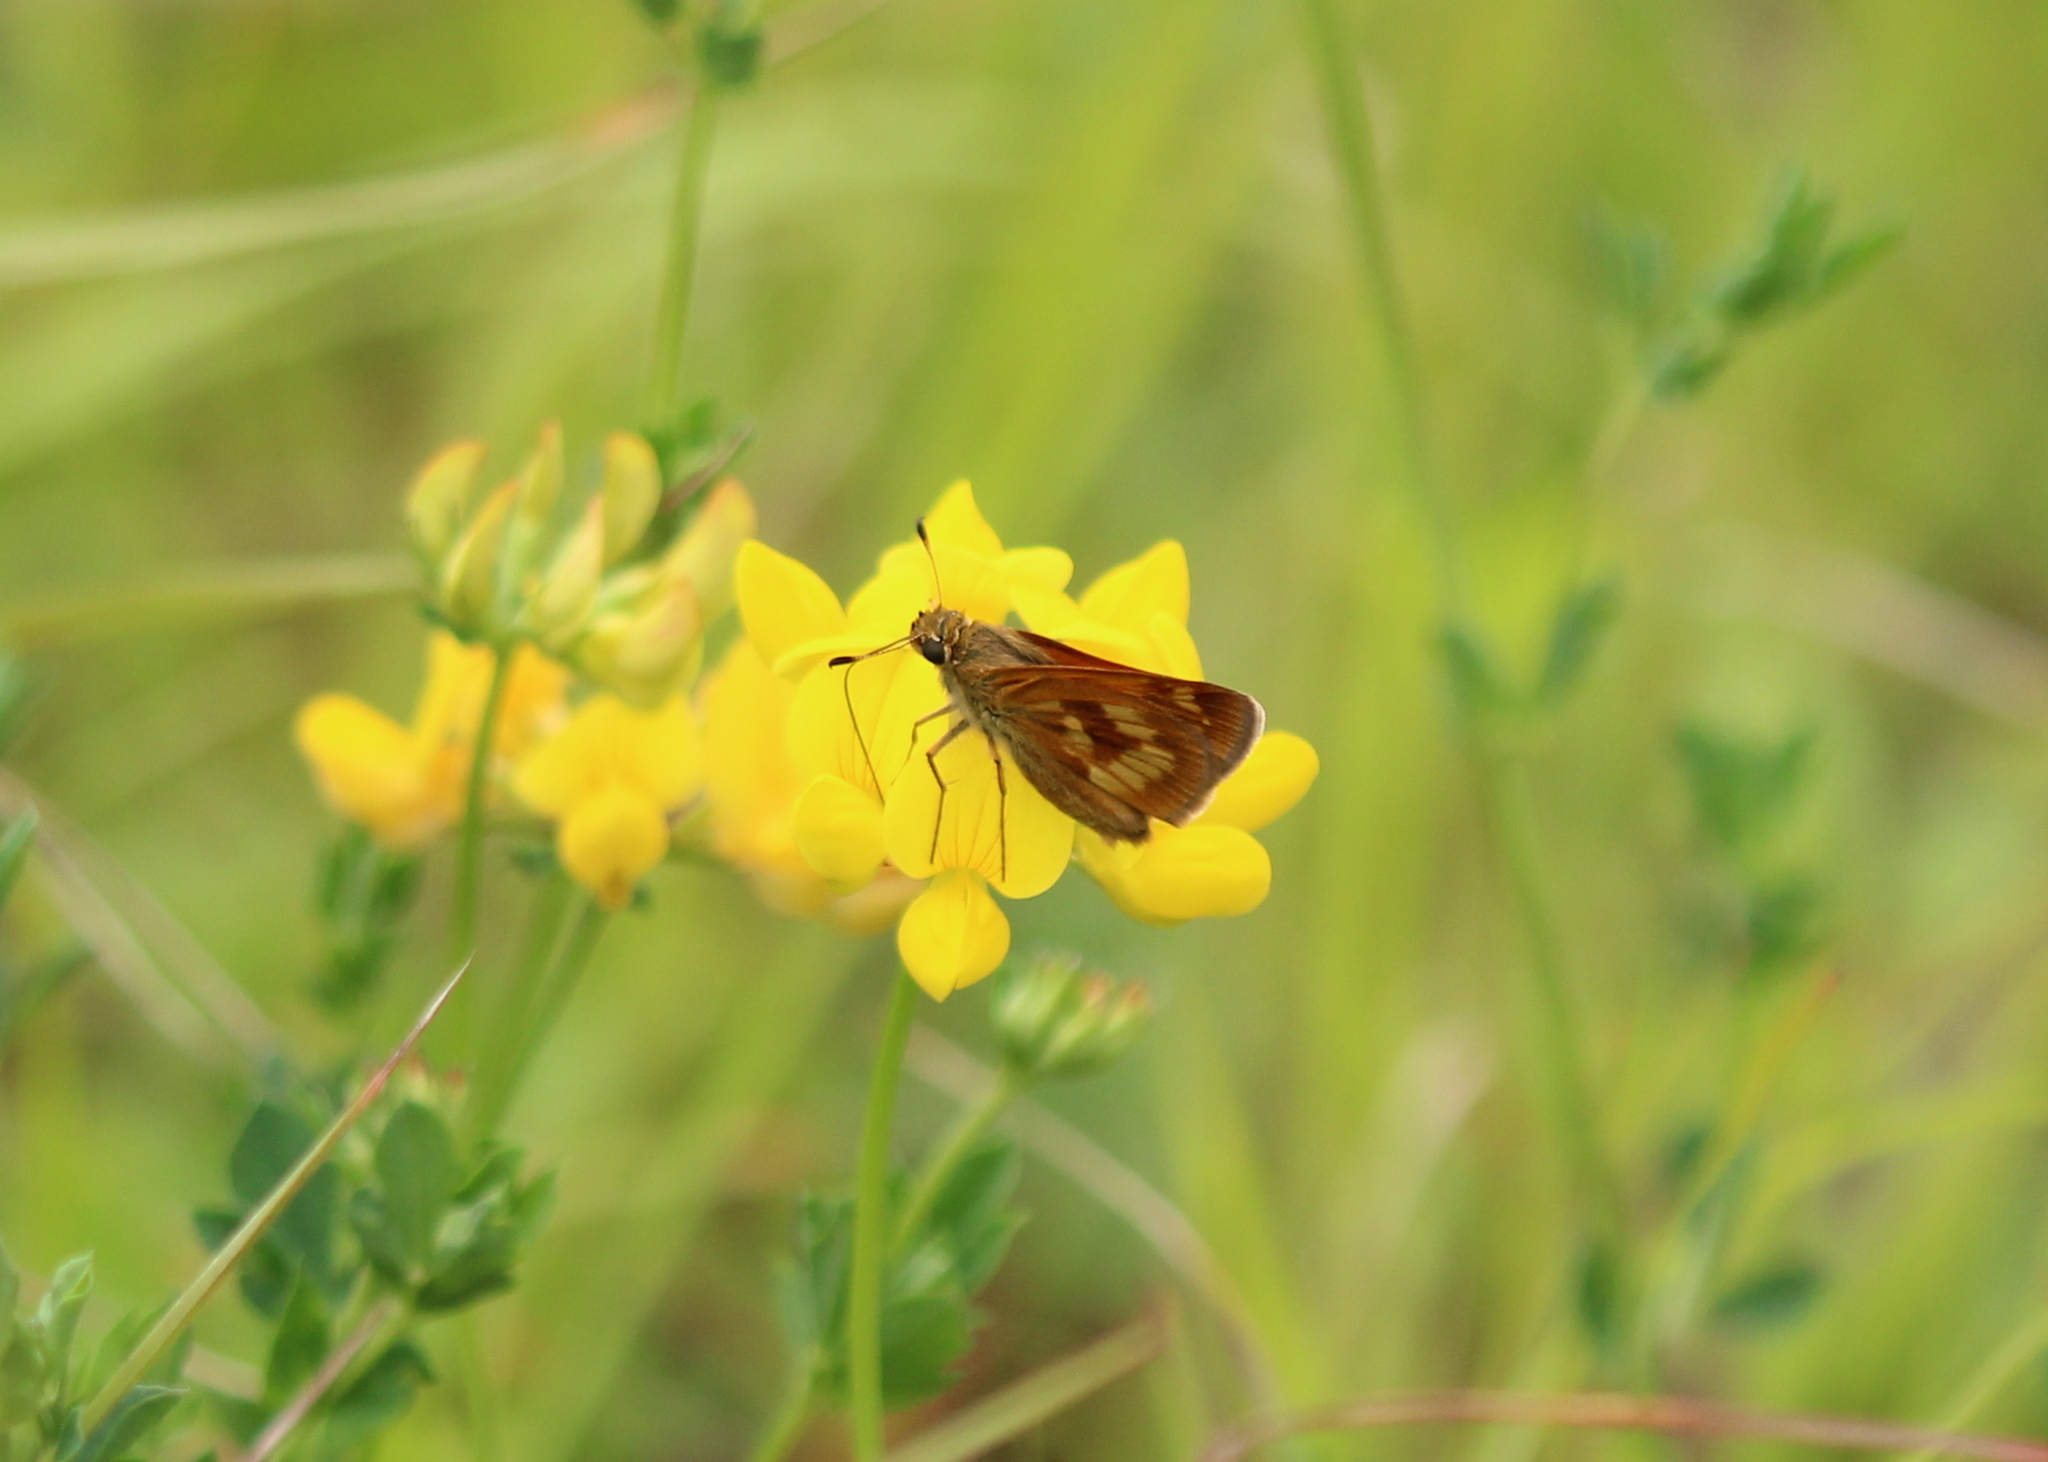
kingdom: Animalia
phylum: Arthropoda
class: Insecta
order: Lepidoptera
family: Hesperiidae
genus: Polites
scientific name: Polites mystic
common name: Long dash
